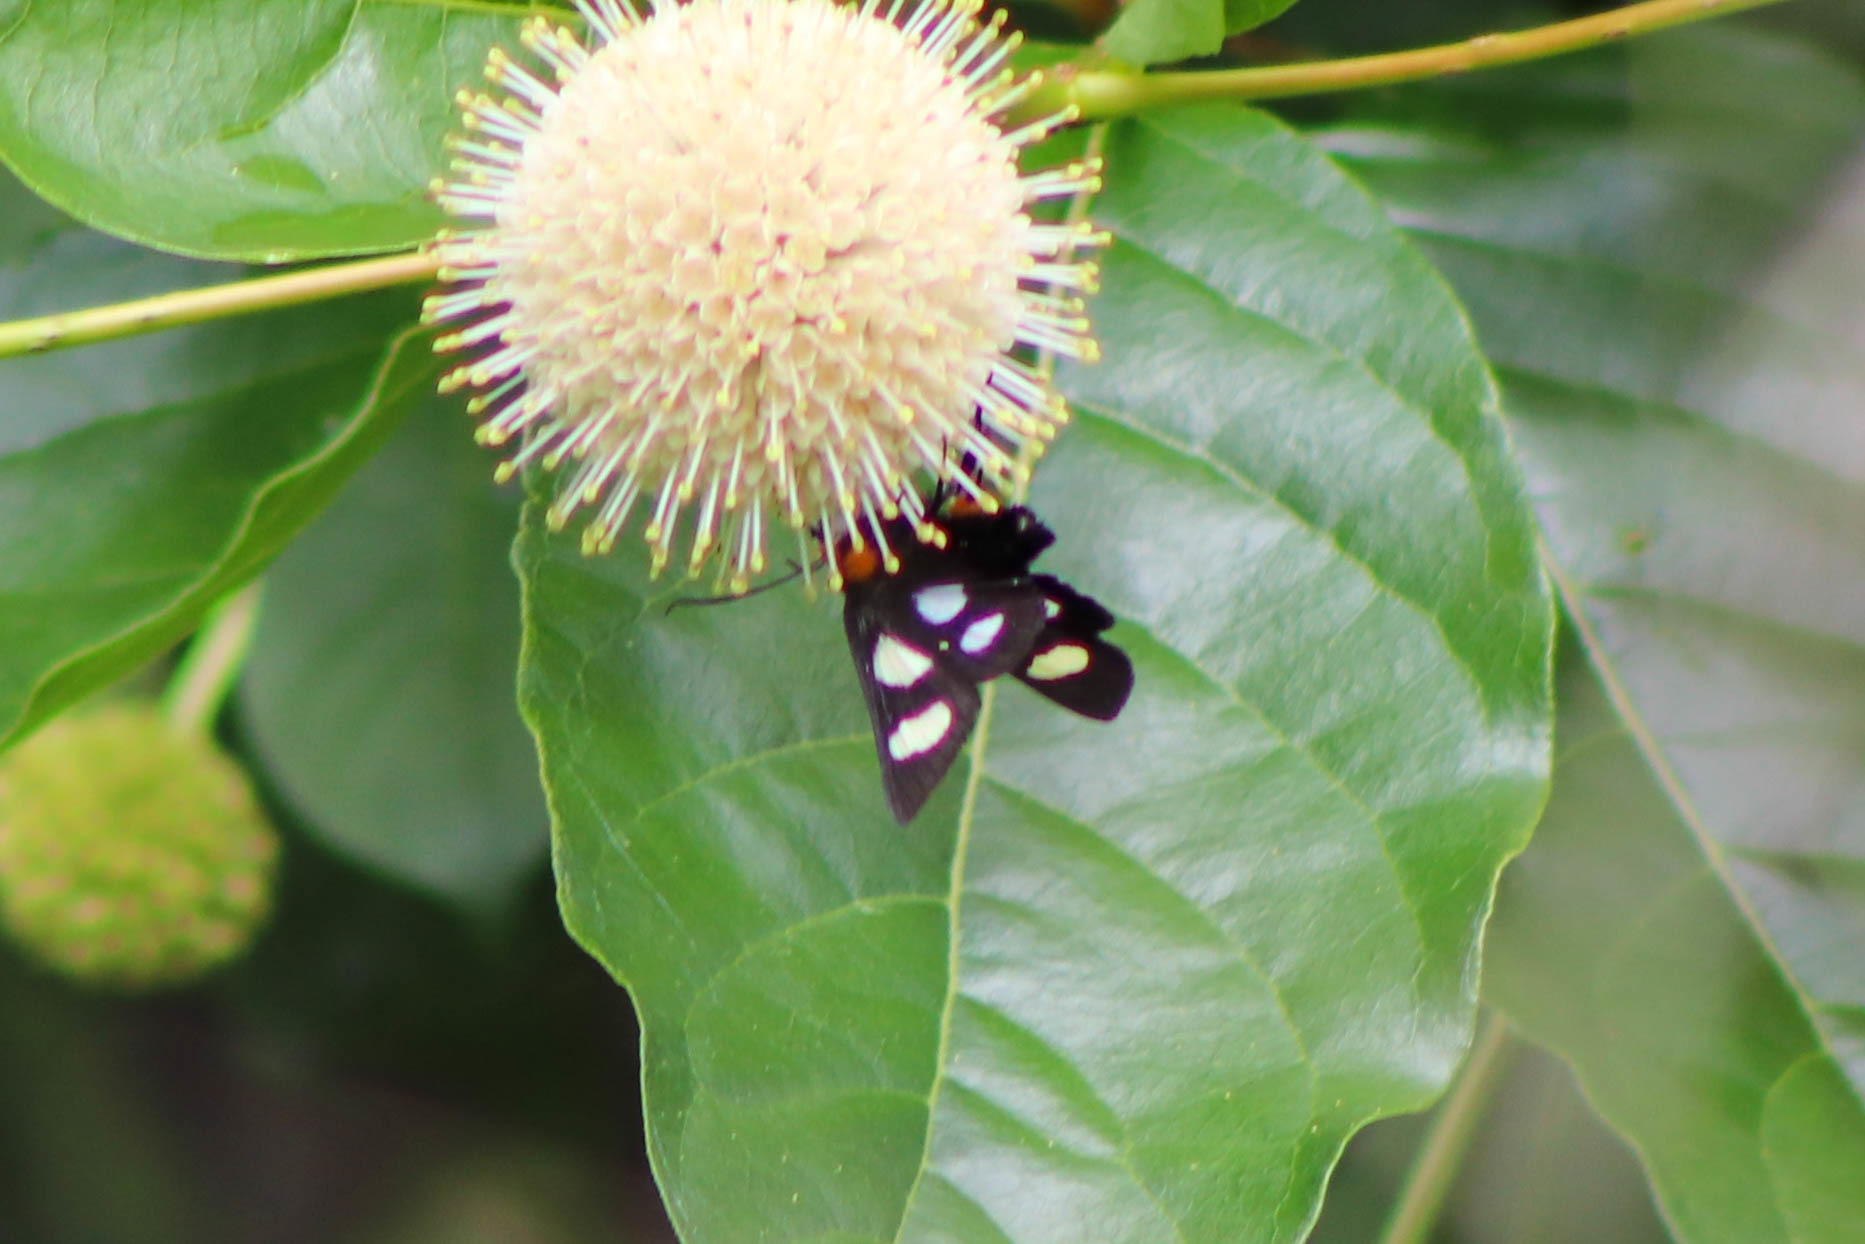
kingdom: Animalia
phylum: Arthropoda
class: Insecta
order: Lepidoptera
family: Noctuidae
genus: Alypia
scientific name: Alypia octomaculata
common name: Eight-spotted forester
